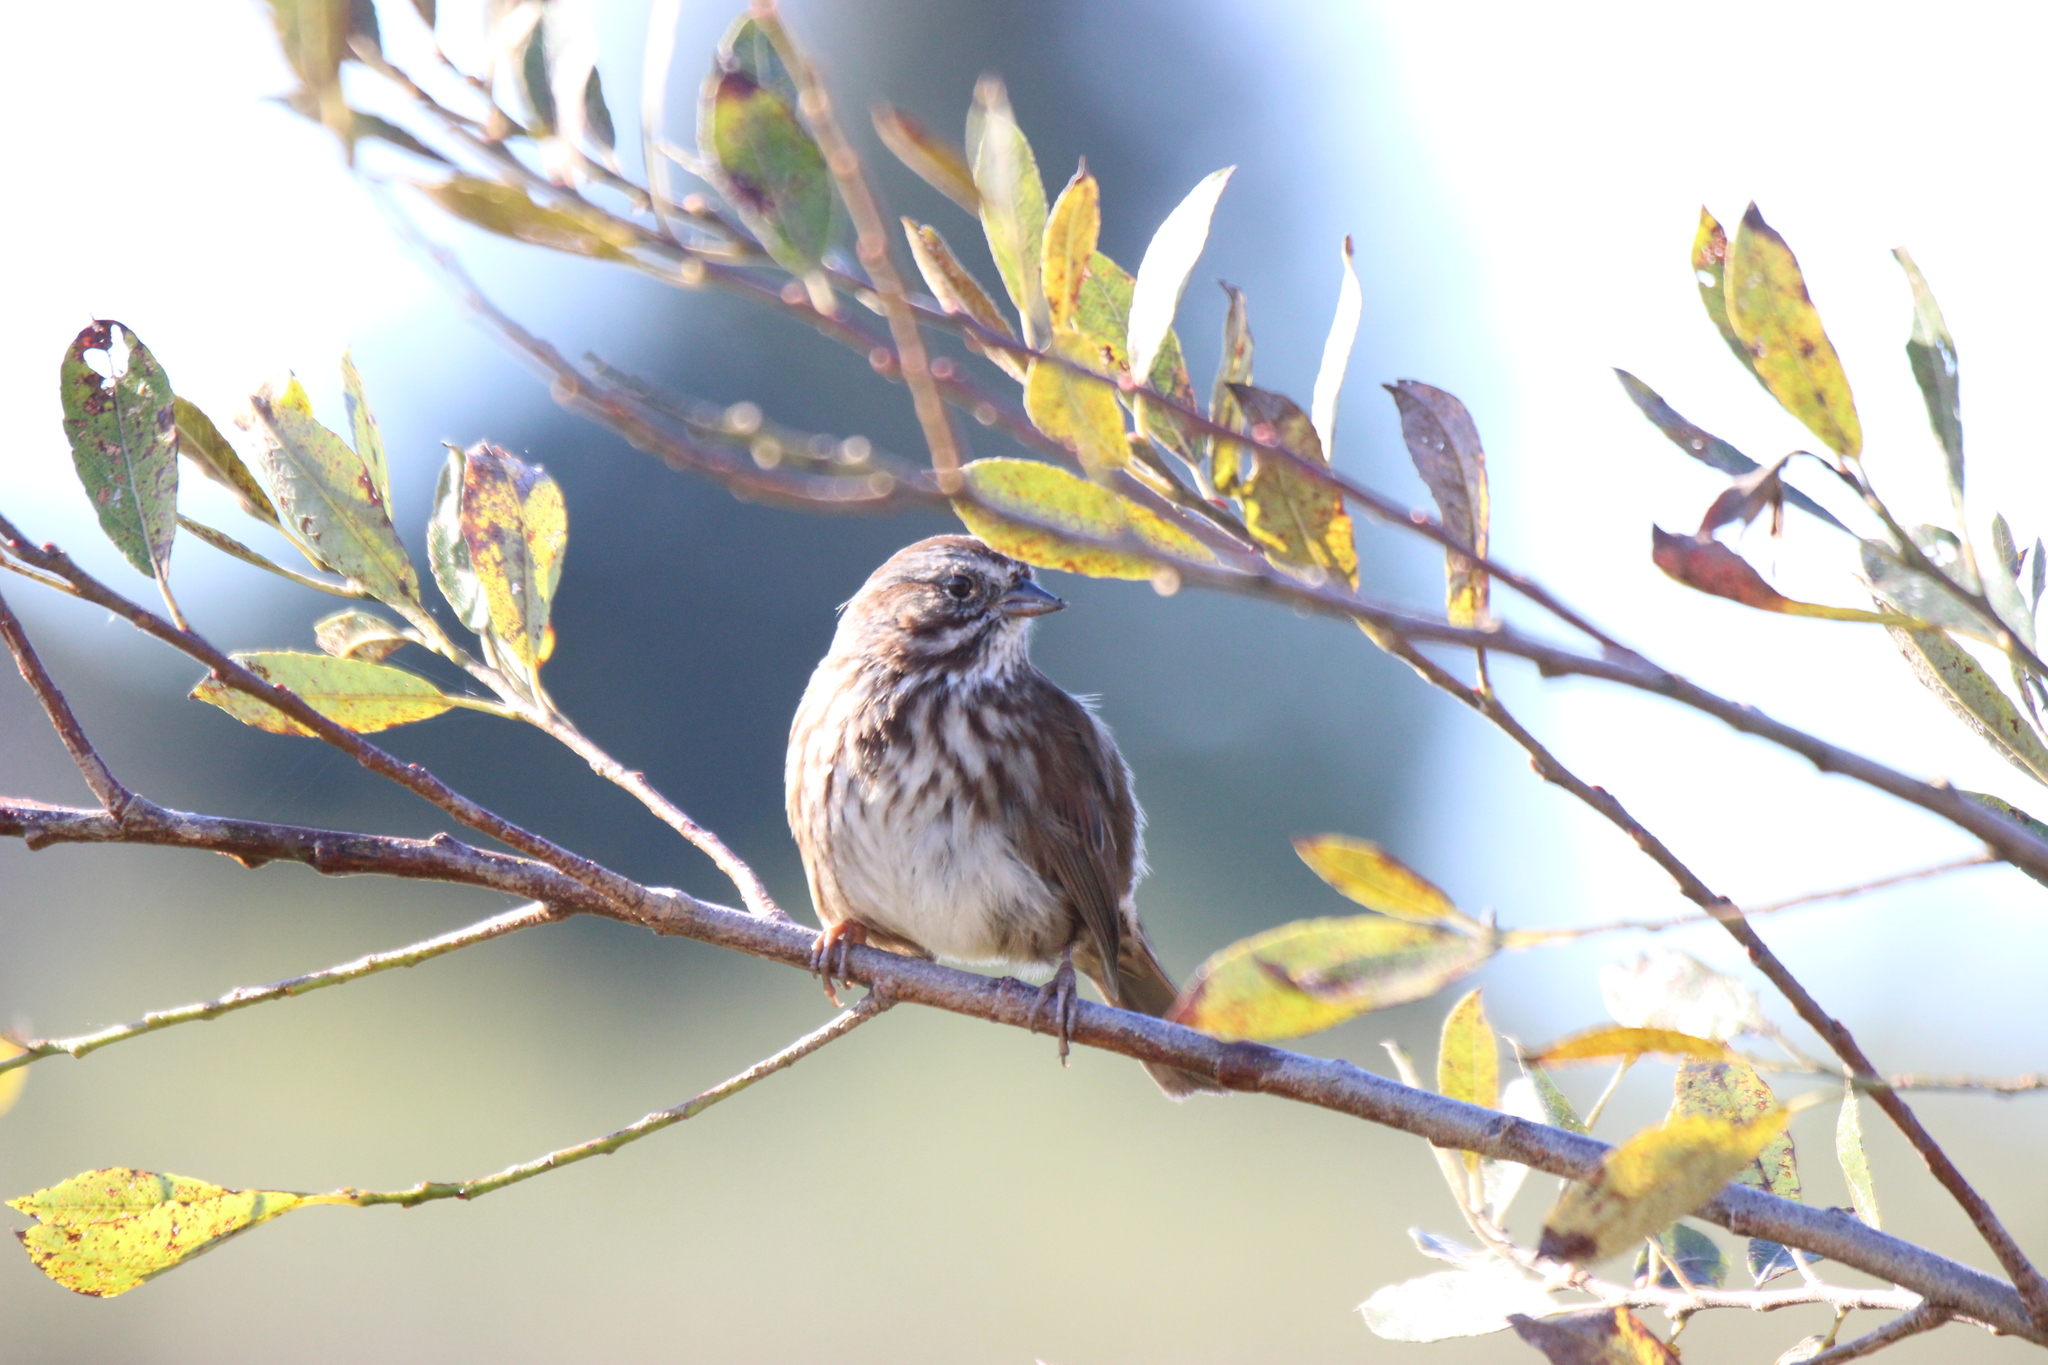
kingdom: Animalia
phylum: Chordata
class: Aves
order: Passeriformes
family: Passerellidae
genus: Melospiza
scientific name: Melospiza melodia
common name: Song sparrow
